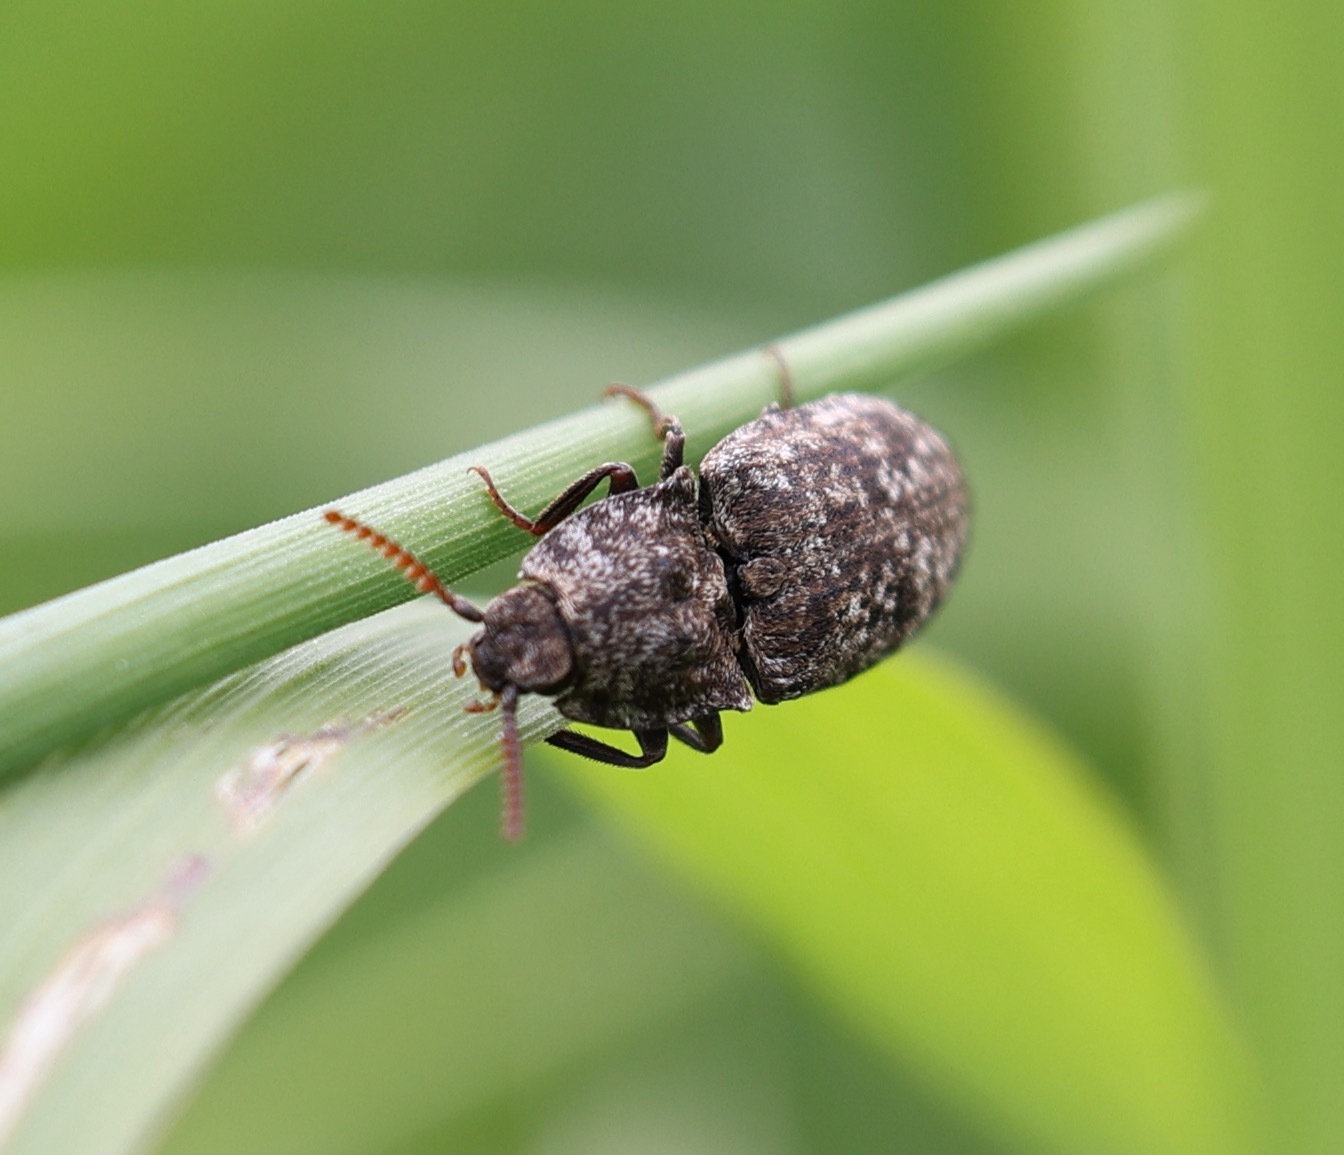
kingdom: Animalia
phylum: Arthropoda
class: Insecta
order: Coleoptera
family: Elateridae
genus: Agrypnus
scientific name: Agrypnus murinus
